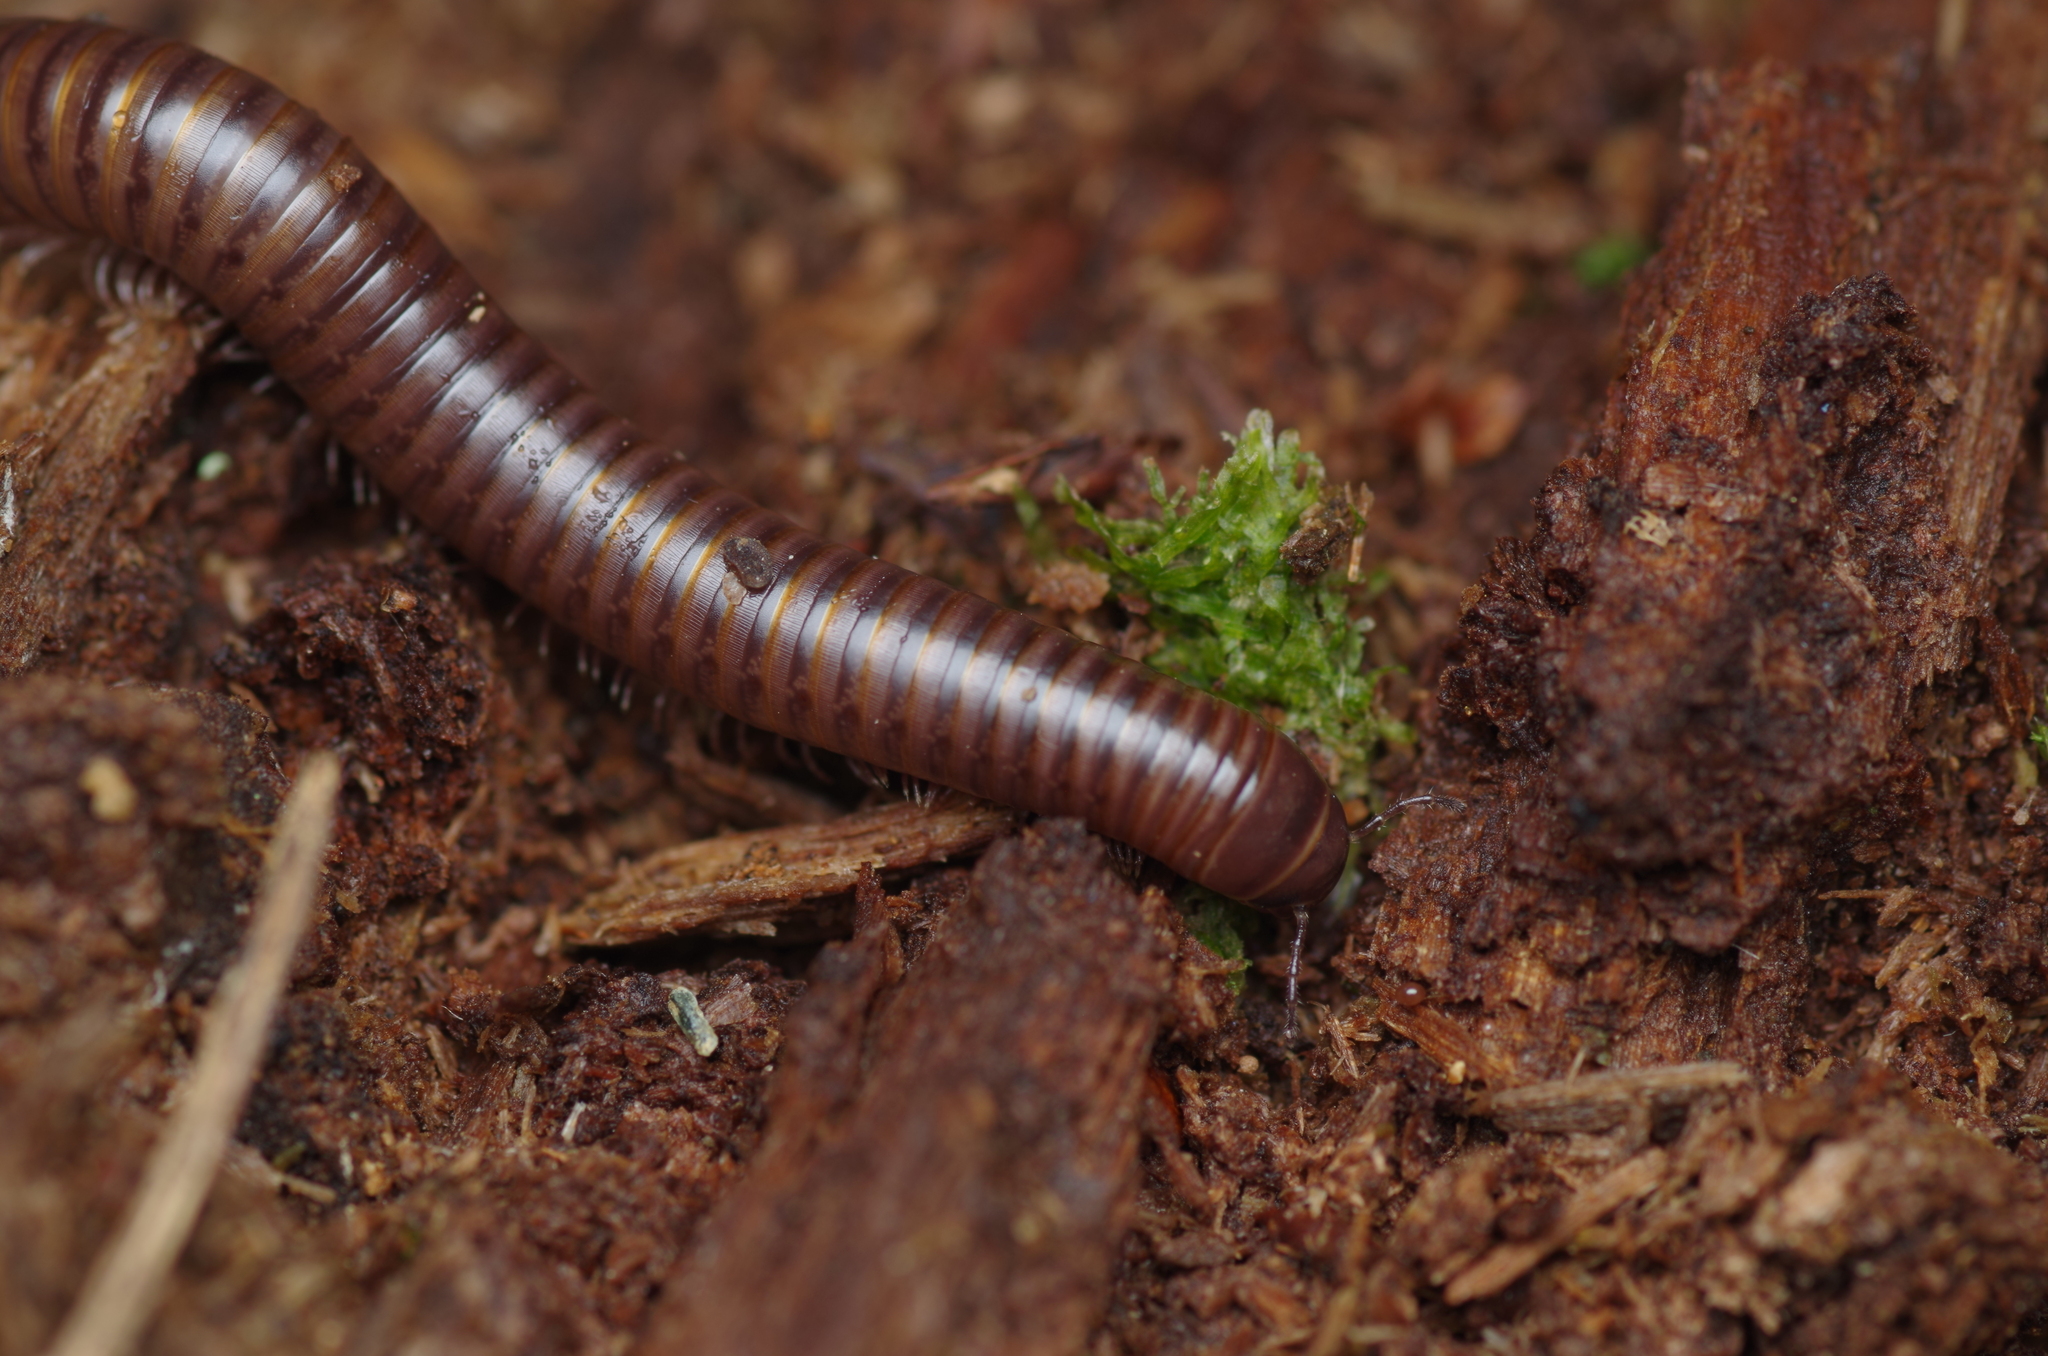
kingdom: Animalia
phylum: Arthropoda
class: Diplopoda
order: Julida
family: Julidae
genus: Cylindroiulus
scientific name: Cylindroiulus londinensis
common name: Black millipede
